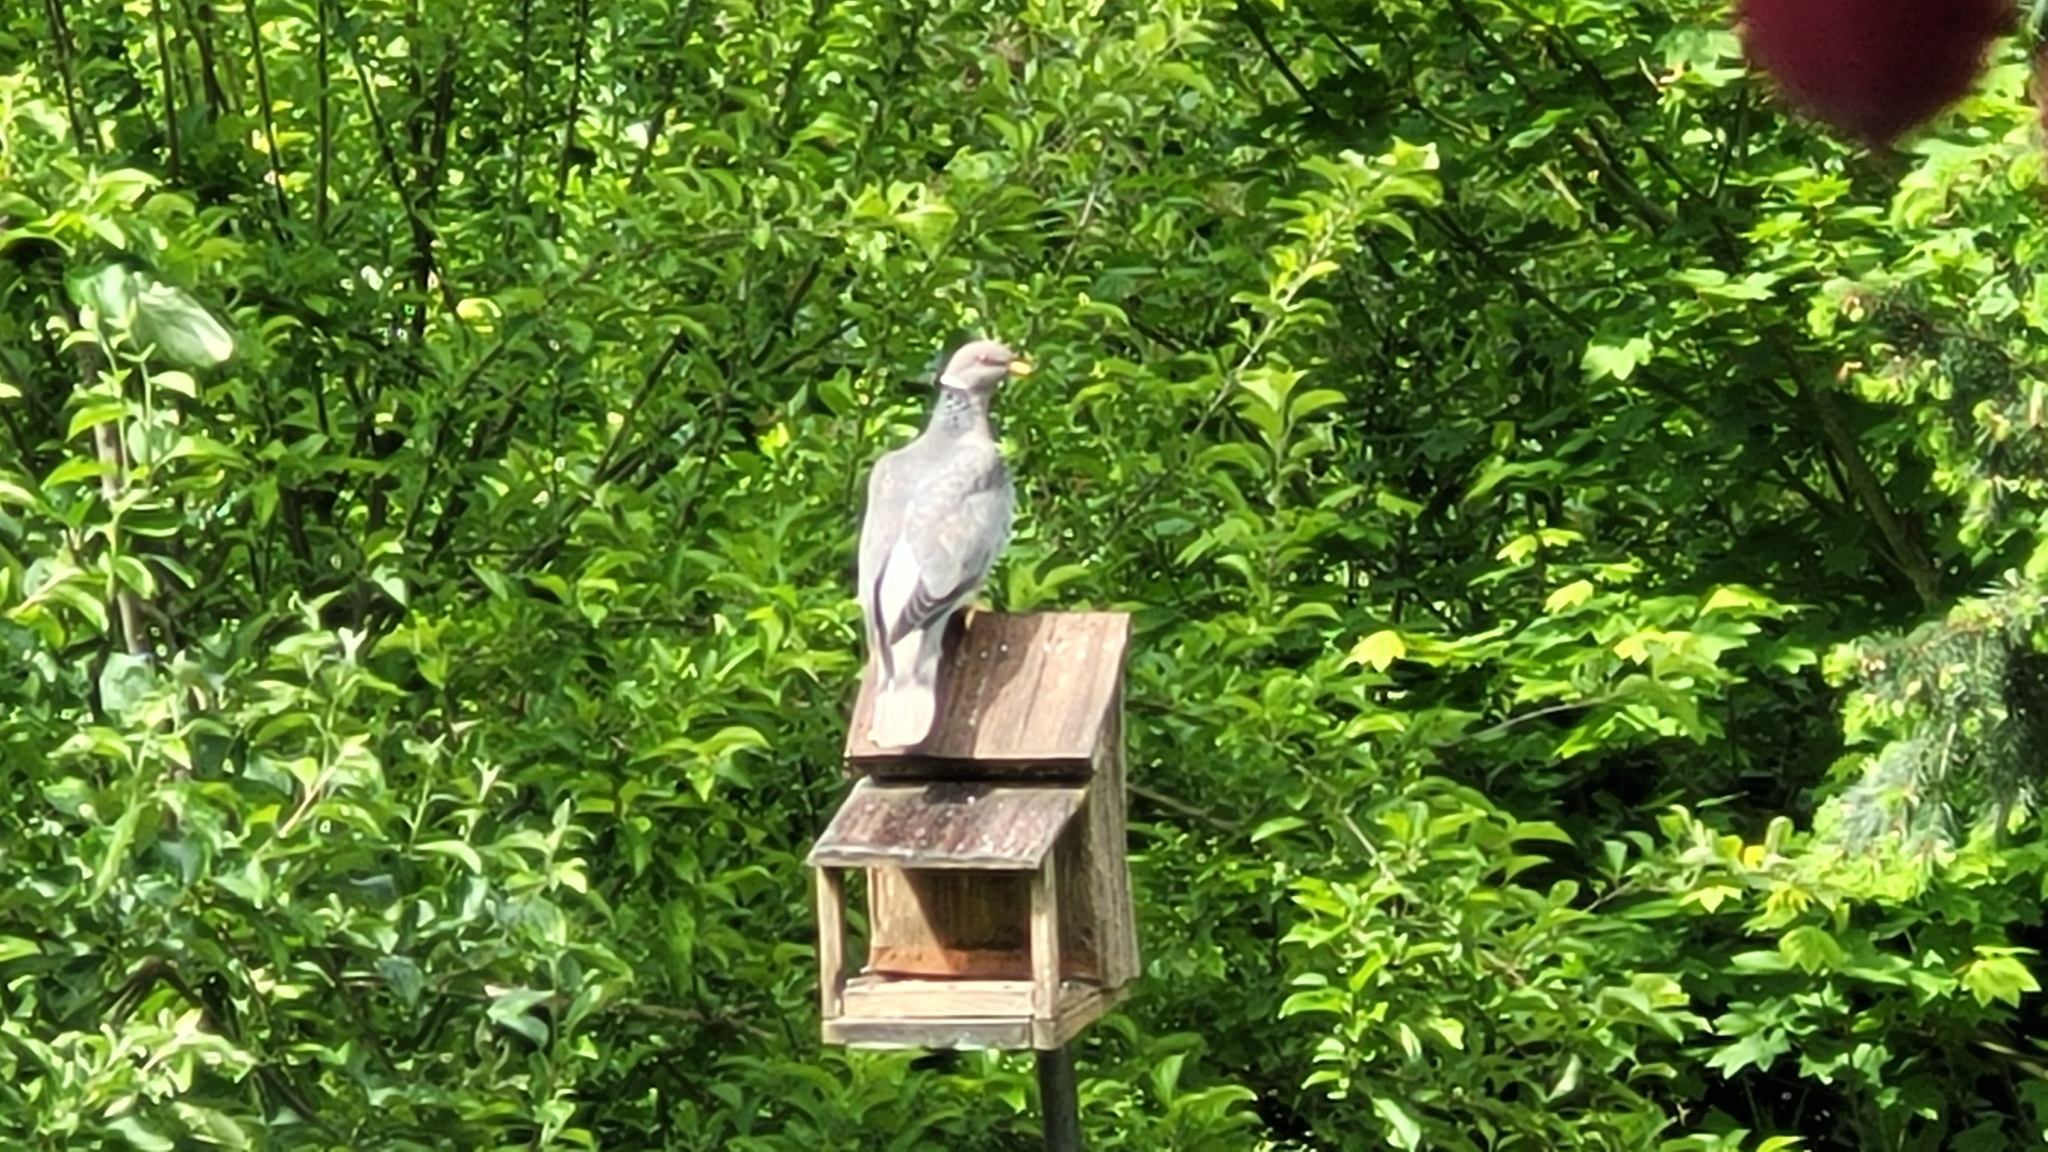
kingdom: Animalia
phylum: Chordata
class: Aves
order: Columbiformes
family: Columbidae
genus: Patagioenas
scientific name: Patagioenas fasciata
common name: Band-tailed pigeon
